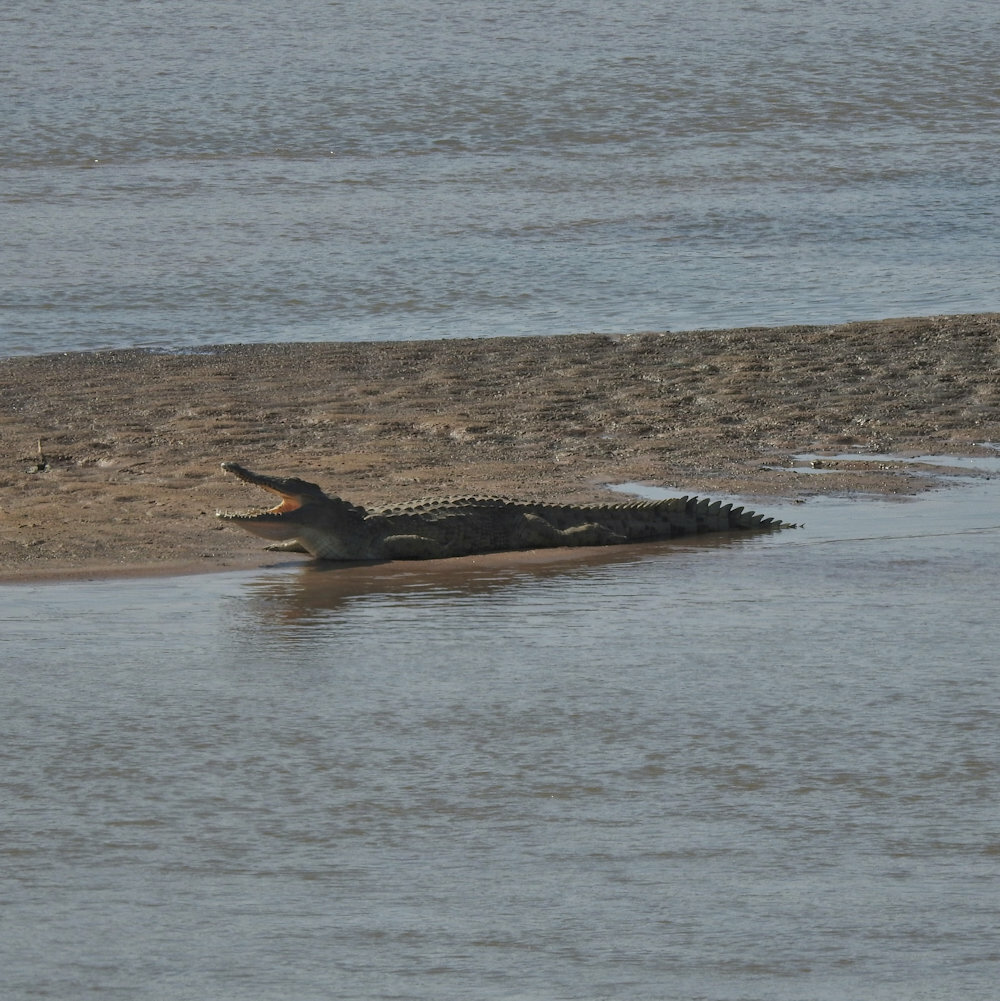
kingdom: Animalia
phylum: Chordata
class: Crocodylia
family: Crocodylidae
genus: Crocodylus
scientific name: Crocodylus niloticus
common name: Nile crocodile
